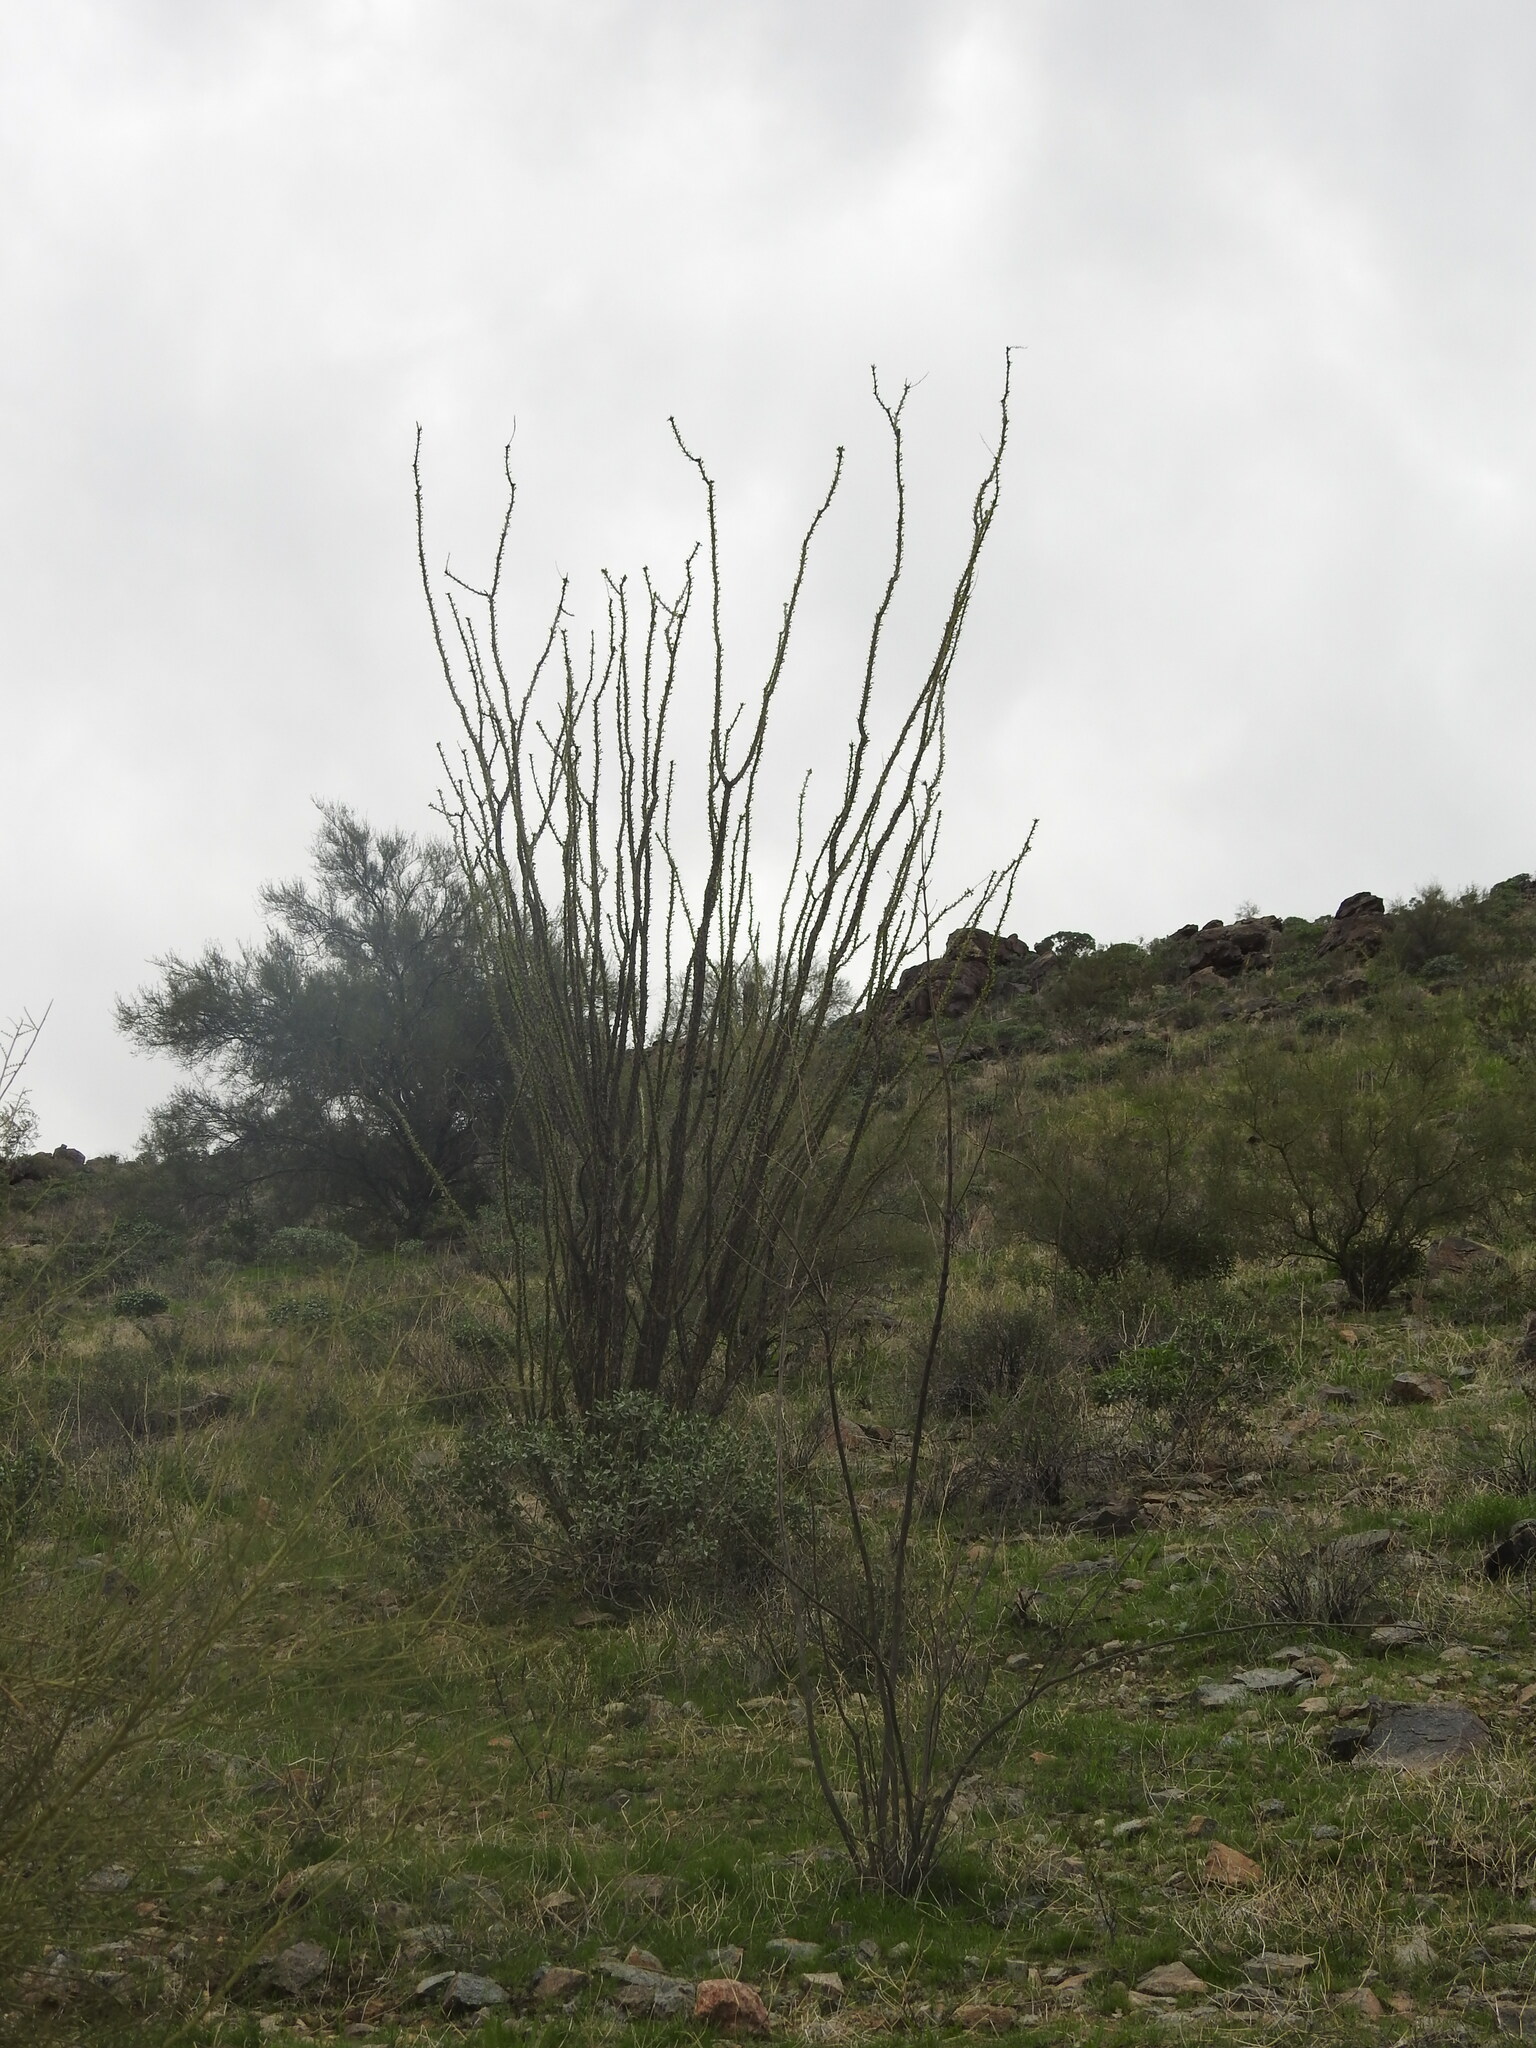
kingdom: Plantae
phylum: Tracheophyta
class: Magnoliopsida
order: Ericales
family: Fouquieriaceae
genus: Fouquieria
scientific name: Fouquieria splendens
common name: Vine-cactus
